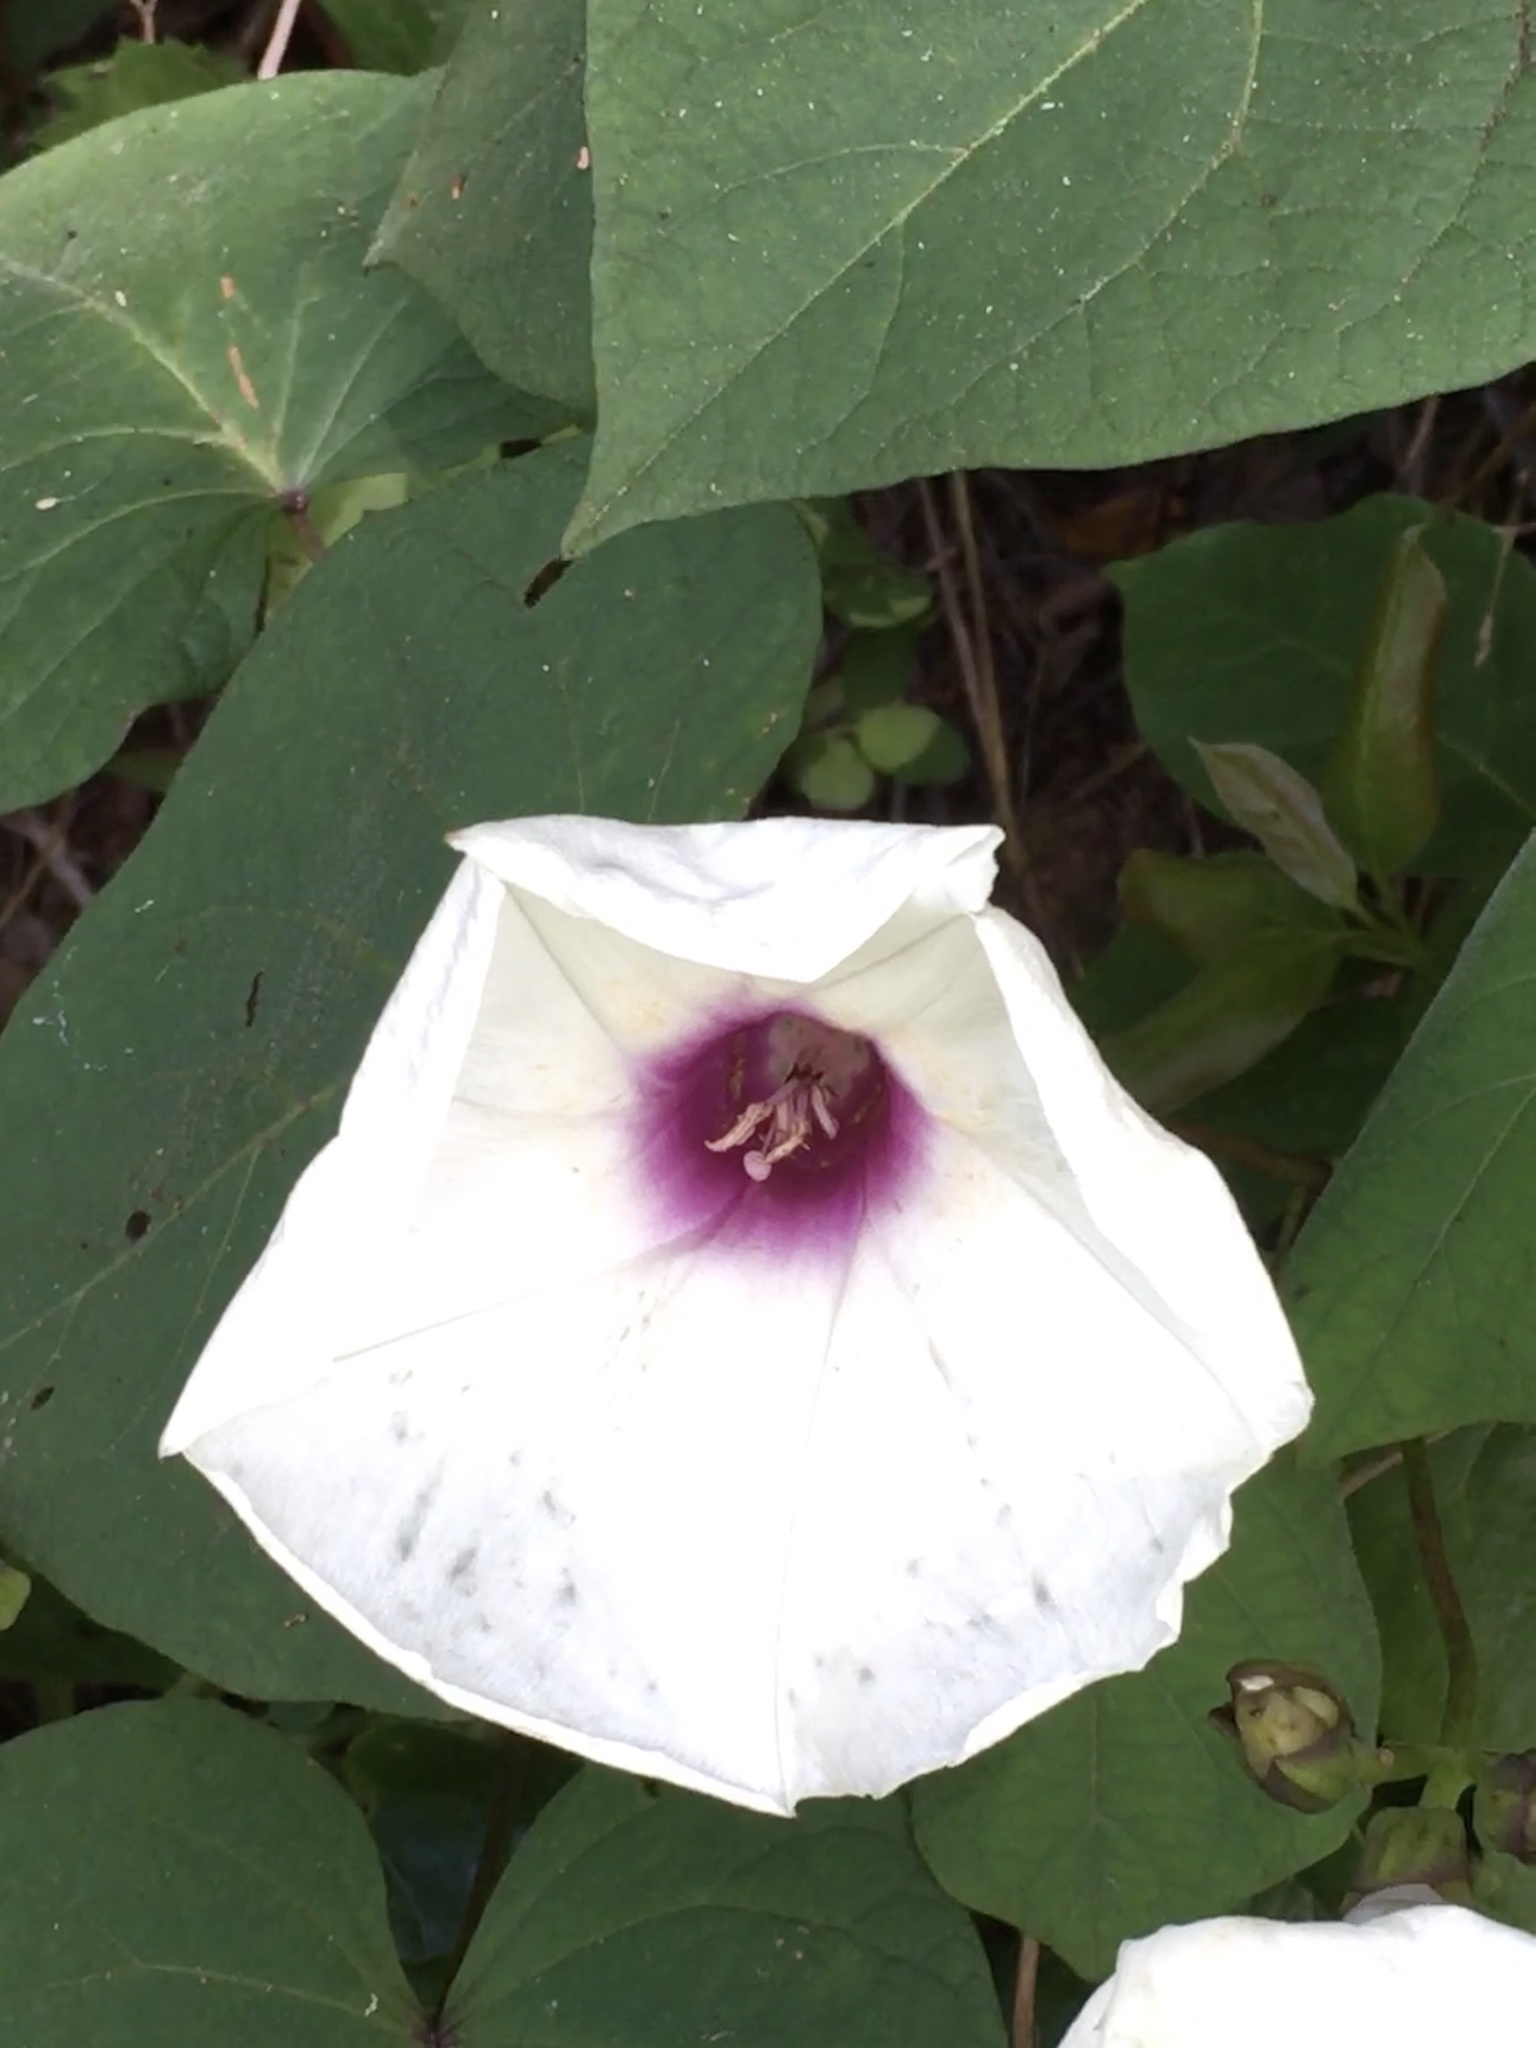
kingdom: Plantae
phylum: Tracheophyta
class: Magnoliopsida
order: Solanales
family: Convolvulaceae
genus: Ipomoea
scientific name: Ipomoea pandurata
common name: Man-of-the-earth
